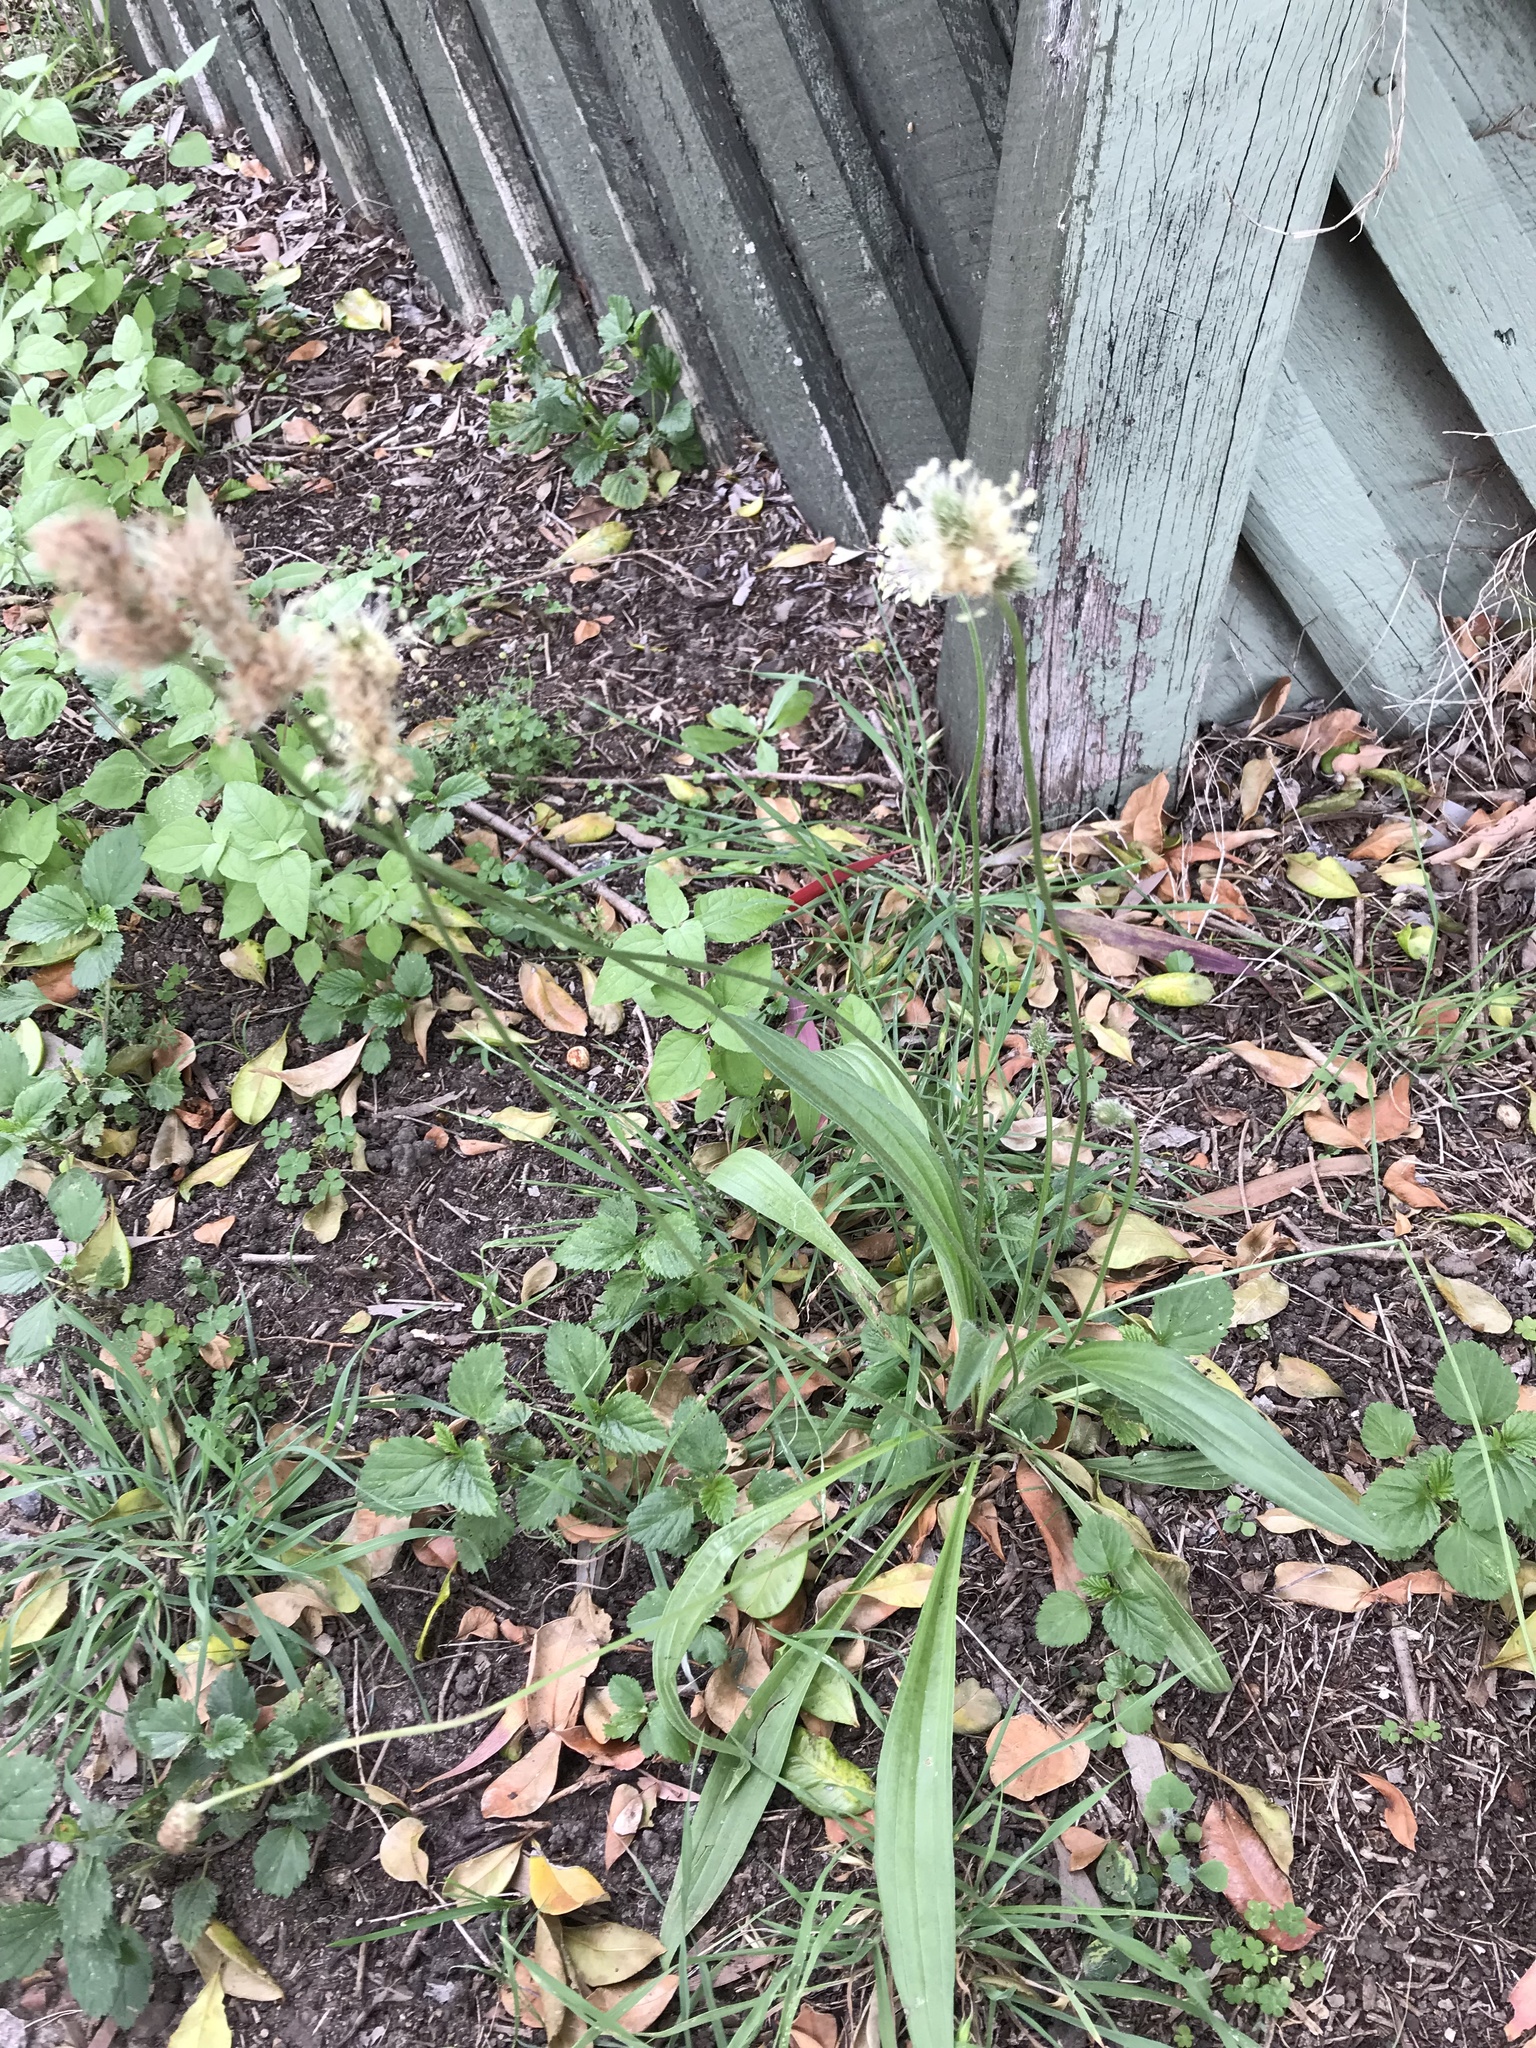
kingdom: Plantae
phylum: Tracheophyta
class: Magnoliopsida
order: Lamiales
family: Plantaginaceae
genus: Plantago
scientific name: Plantago lanceolata
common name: Ribwort plantain
